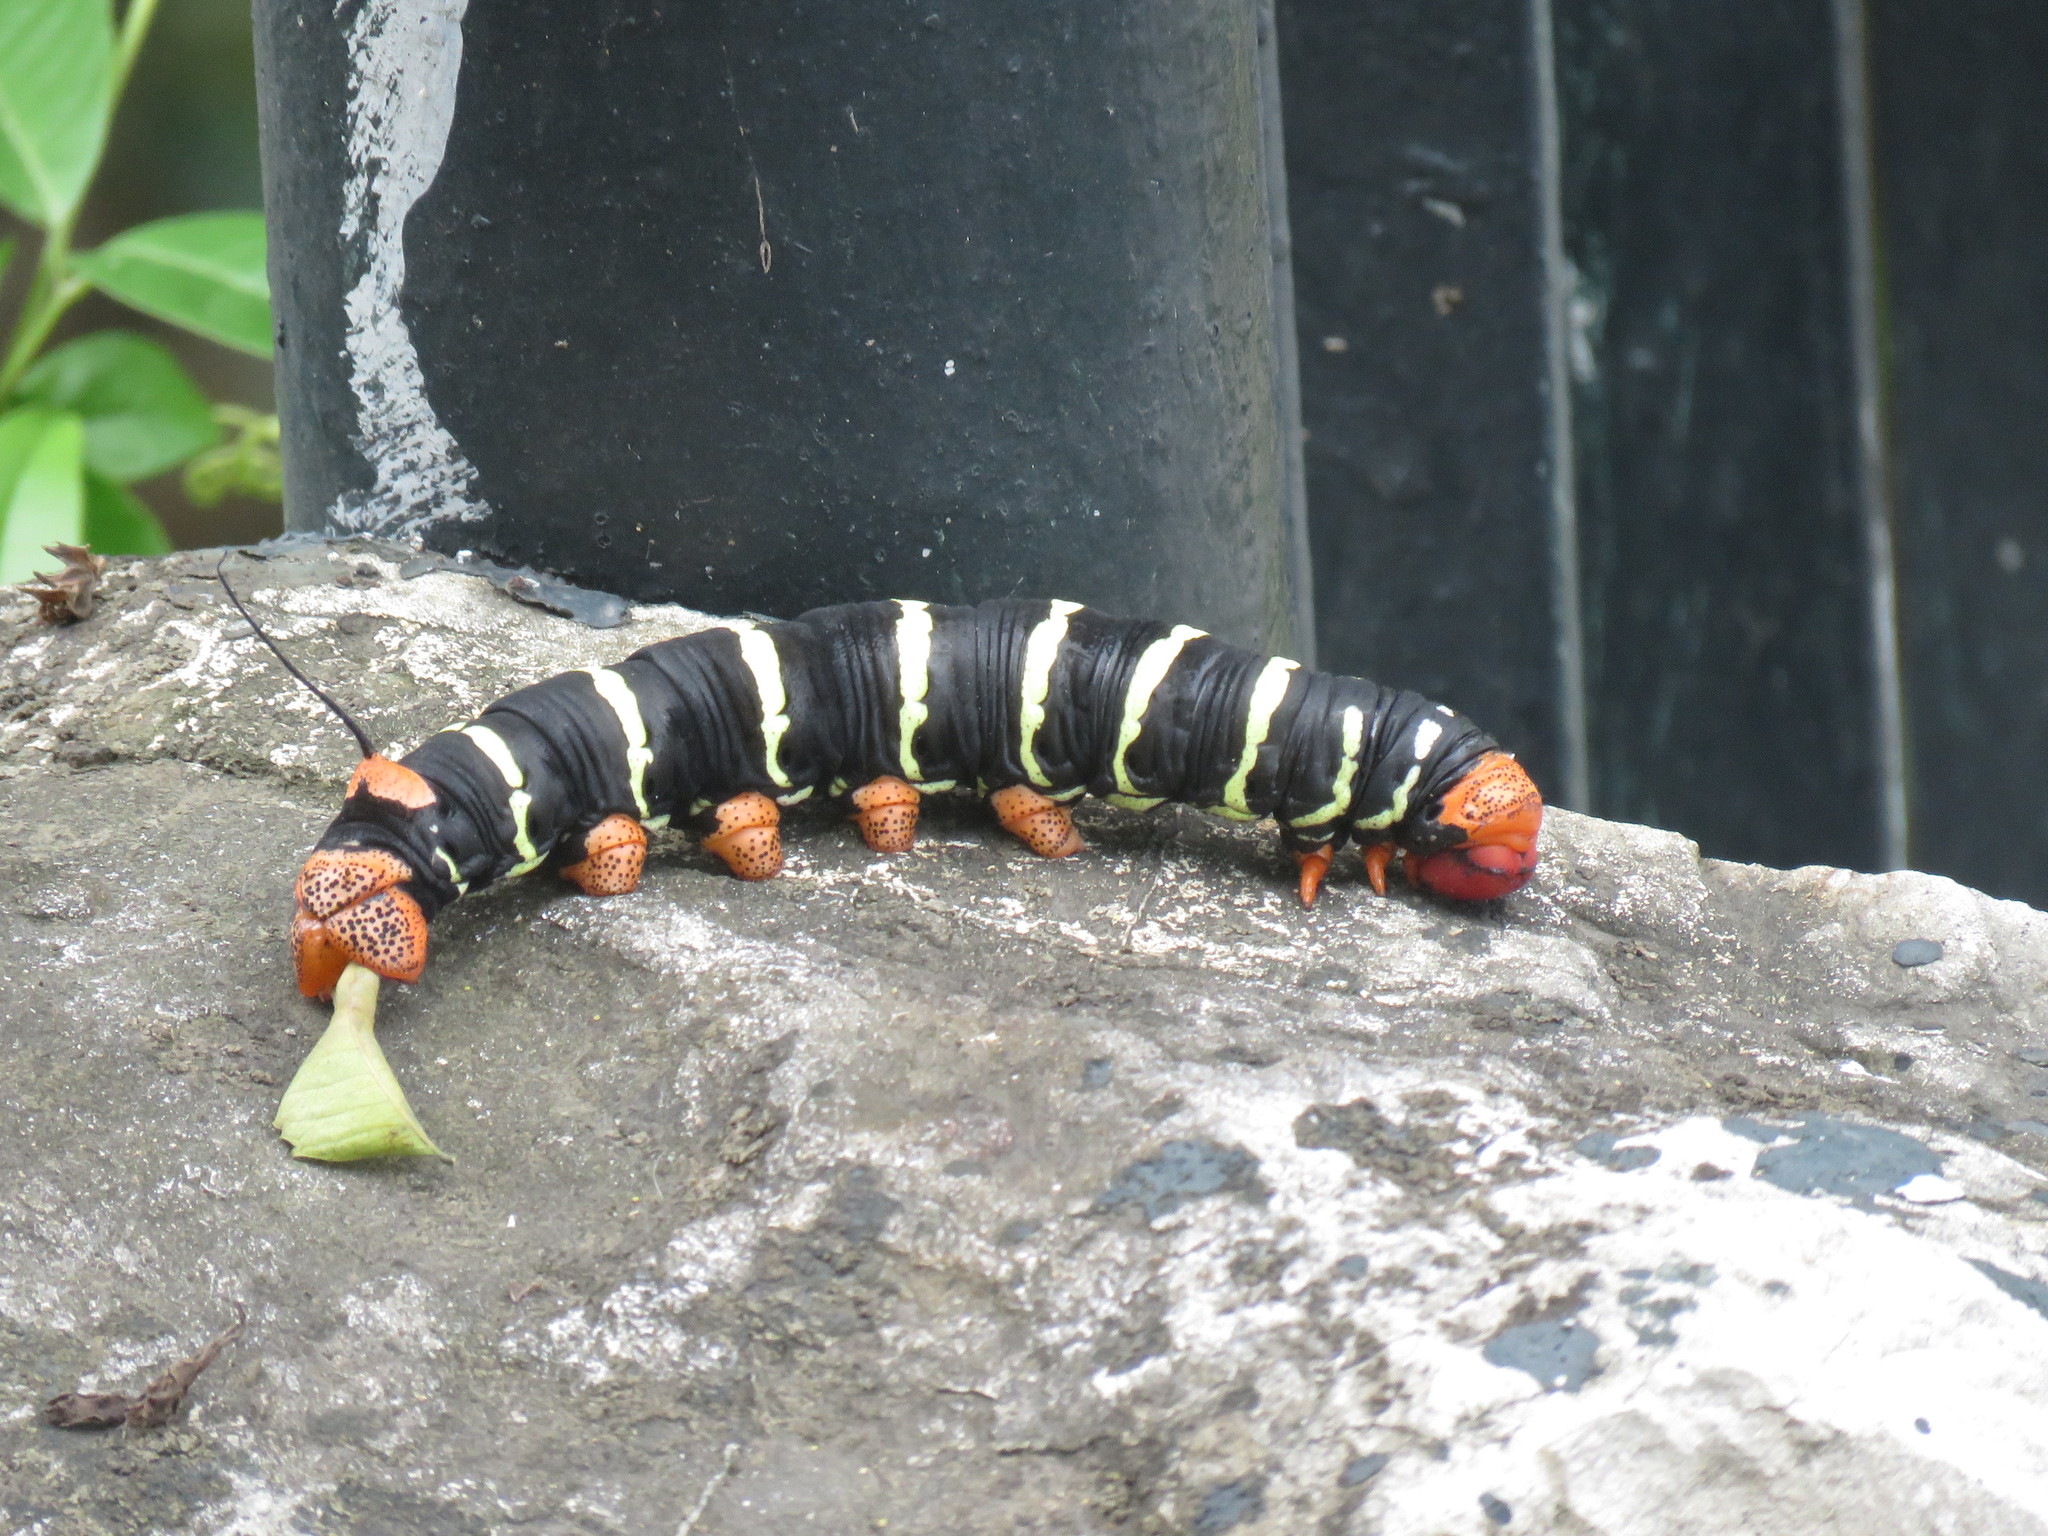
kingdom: Animalia
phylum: Arthropoda
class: Insecta
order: Lepidoptera
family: Sphingidae
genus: Pseudosphinx
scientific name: Pseudosphinx tetrio
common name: Tetrio sphinx
